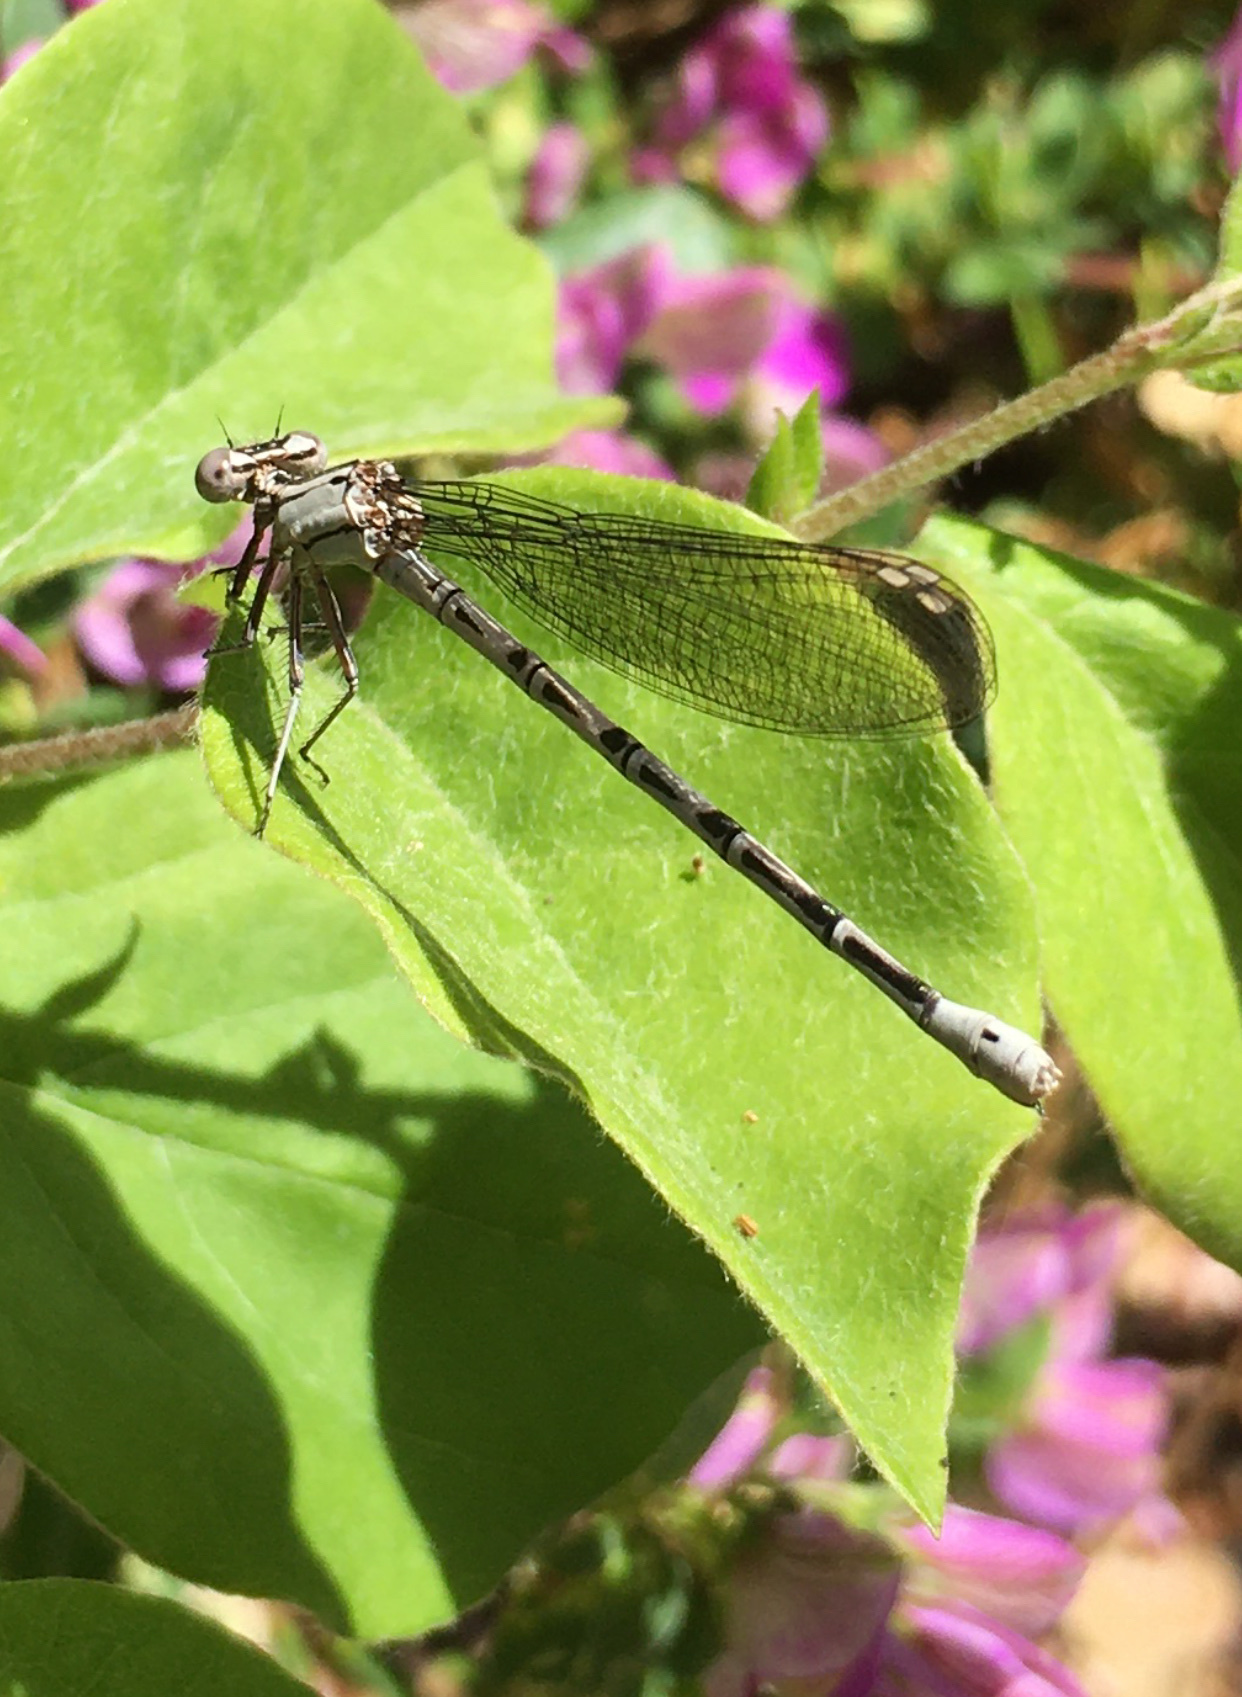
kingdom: Animalia
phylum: Arthropoda
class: Insecta
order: Odonata
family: Coenagrionidae
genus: Argia
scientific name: Argia vivida
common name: Vivid dancer
